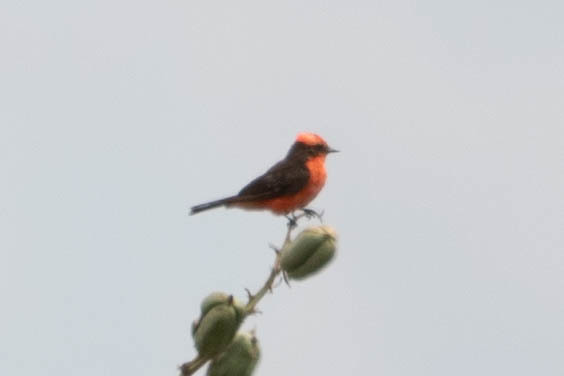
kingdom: Animalia
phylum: Chordata
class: Aves
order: Passeriformes
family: Tyrannidae
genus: Pyrocephalus
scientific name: Pyrocephalus rubinus
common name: Vermilion flycatcher
